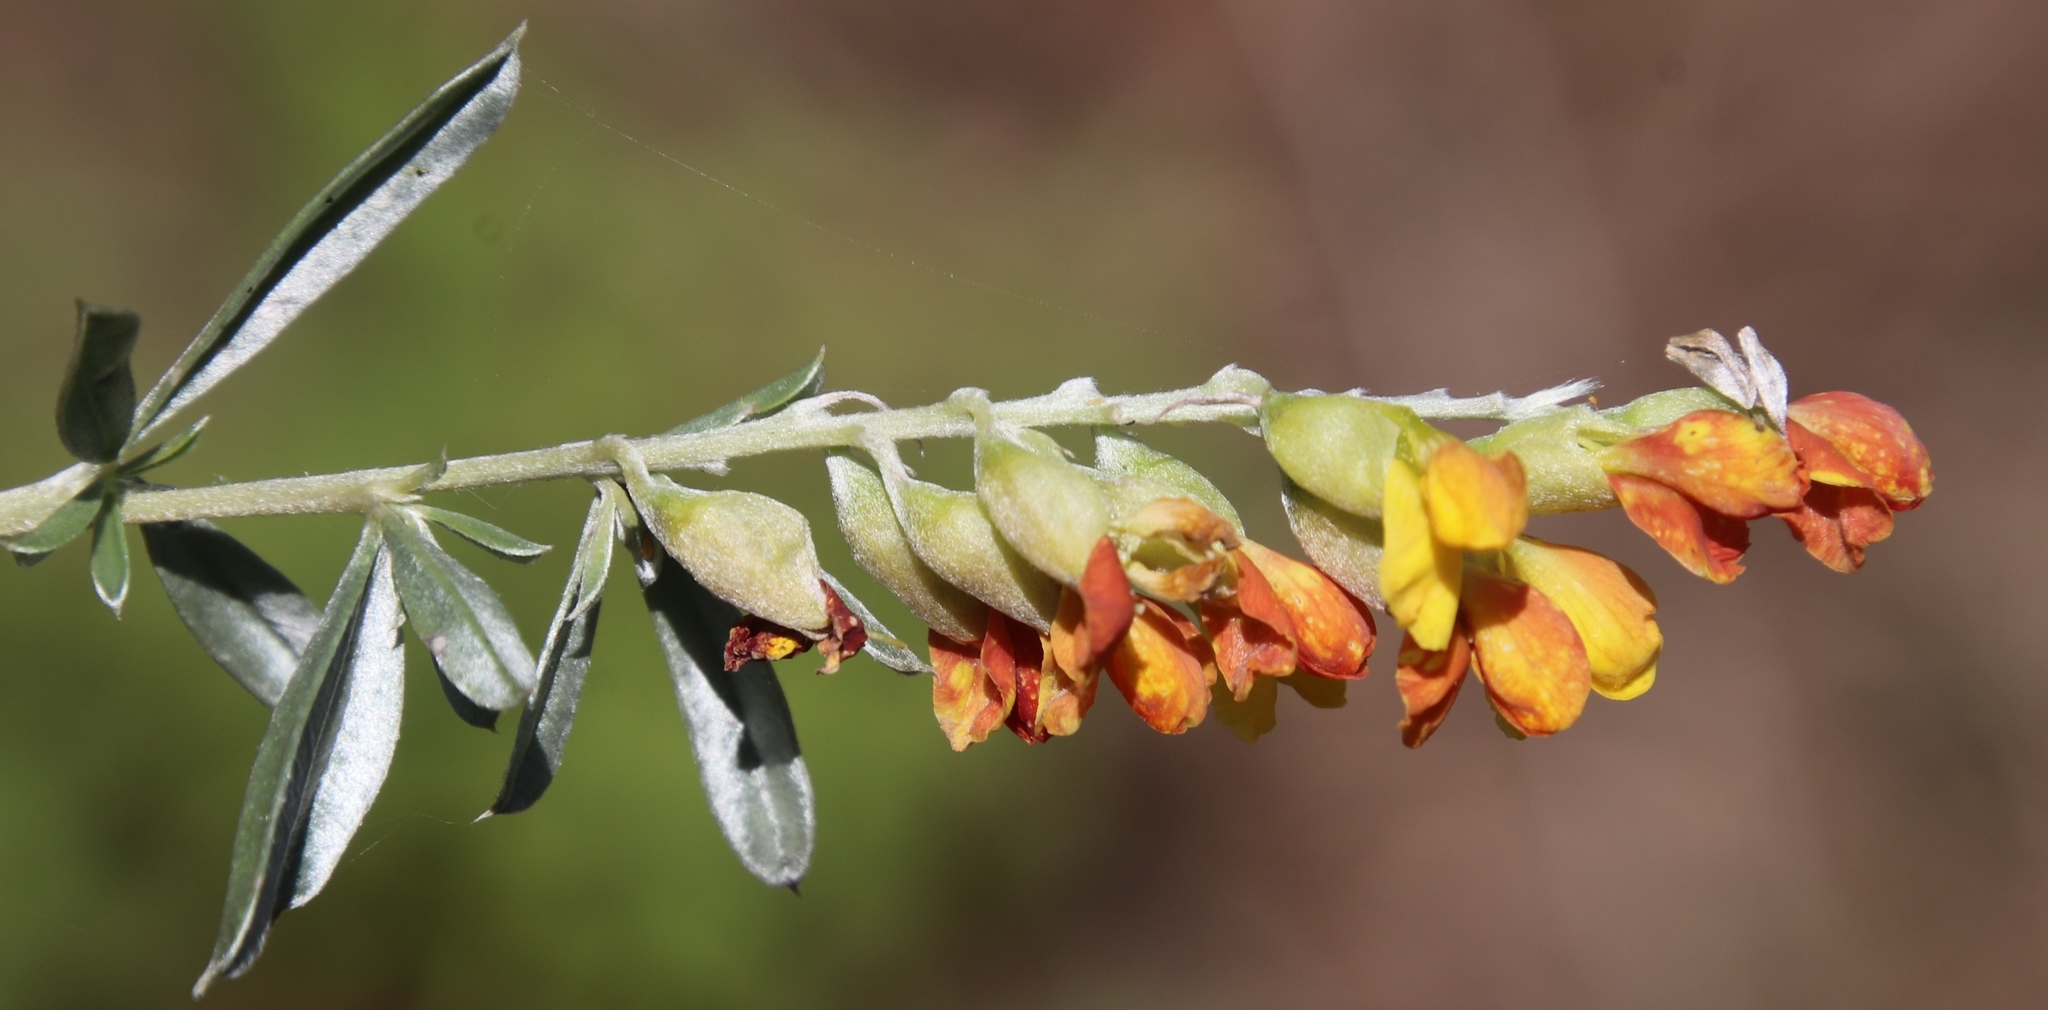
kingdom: Plantae
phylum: Tracheophyta
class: Magnoliopsida
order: Fabales
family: Fabaceae
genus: Pearsonia
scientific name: Pearsonia sessilifolia
